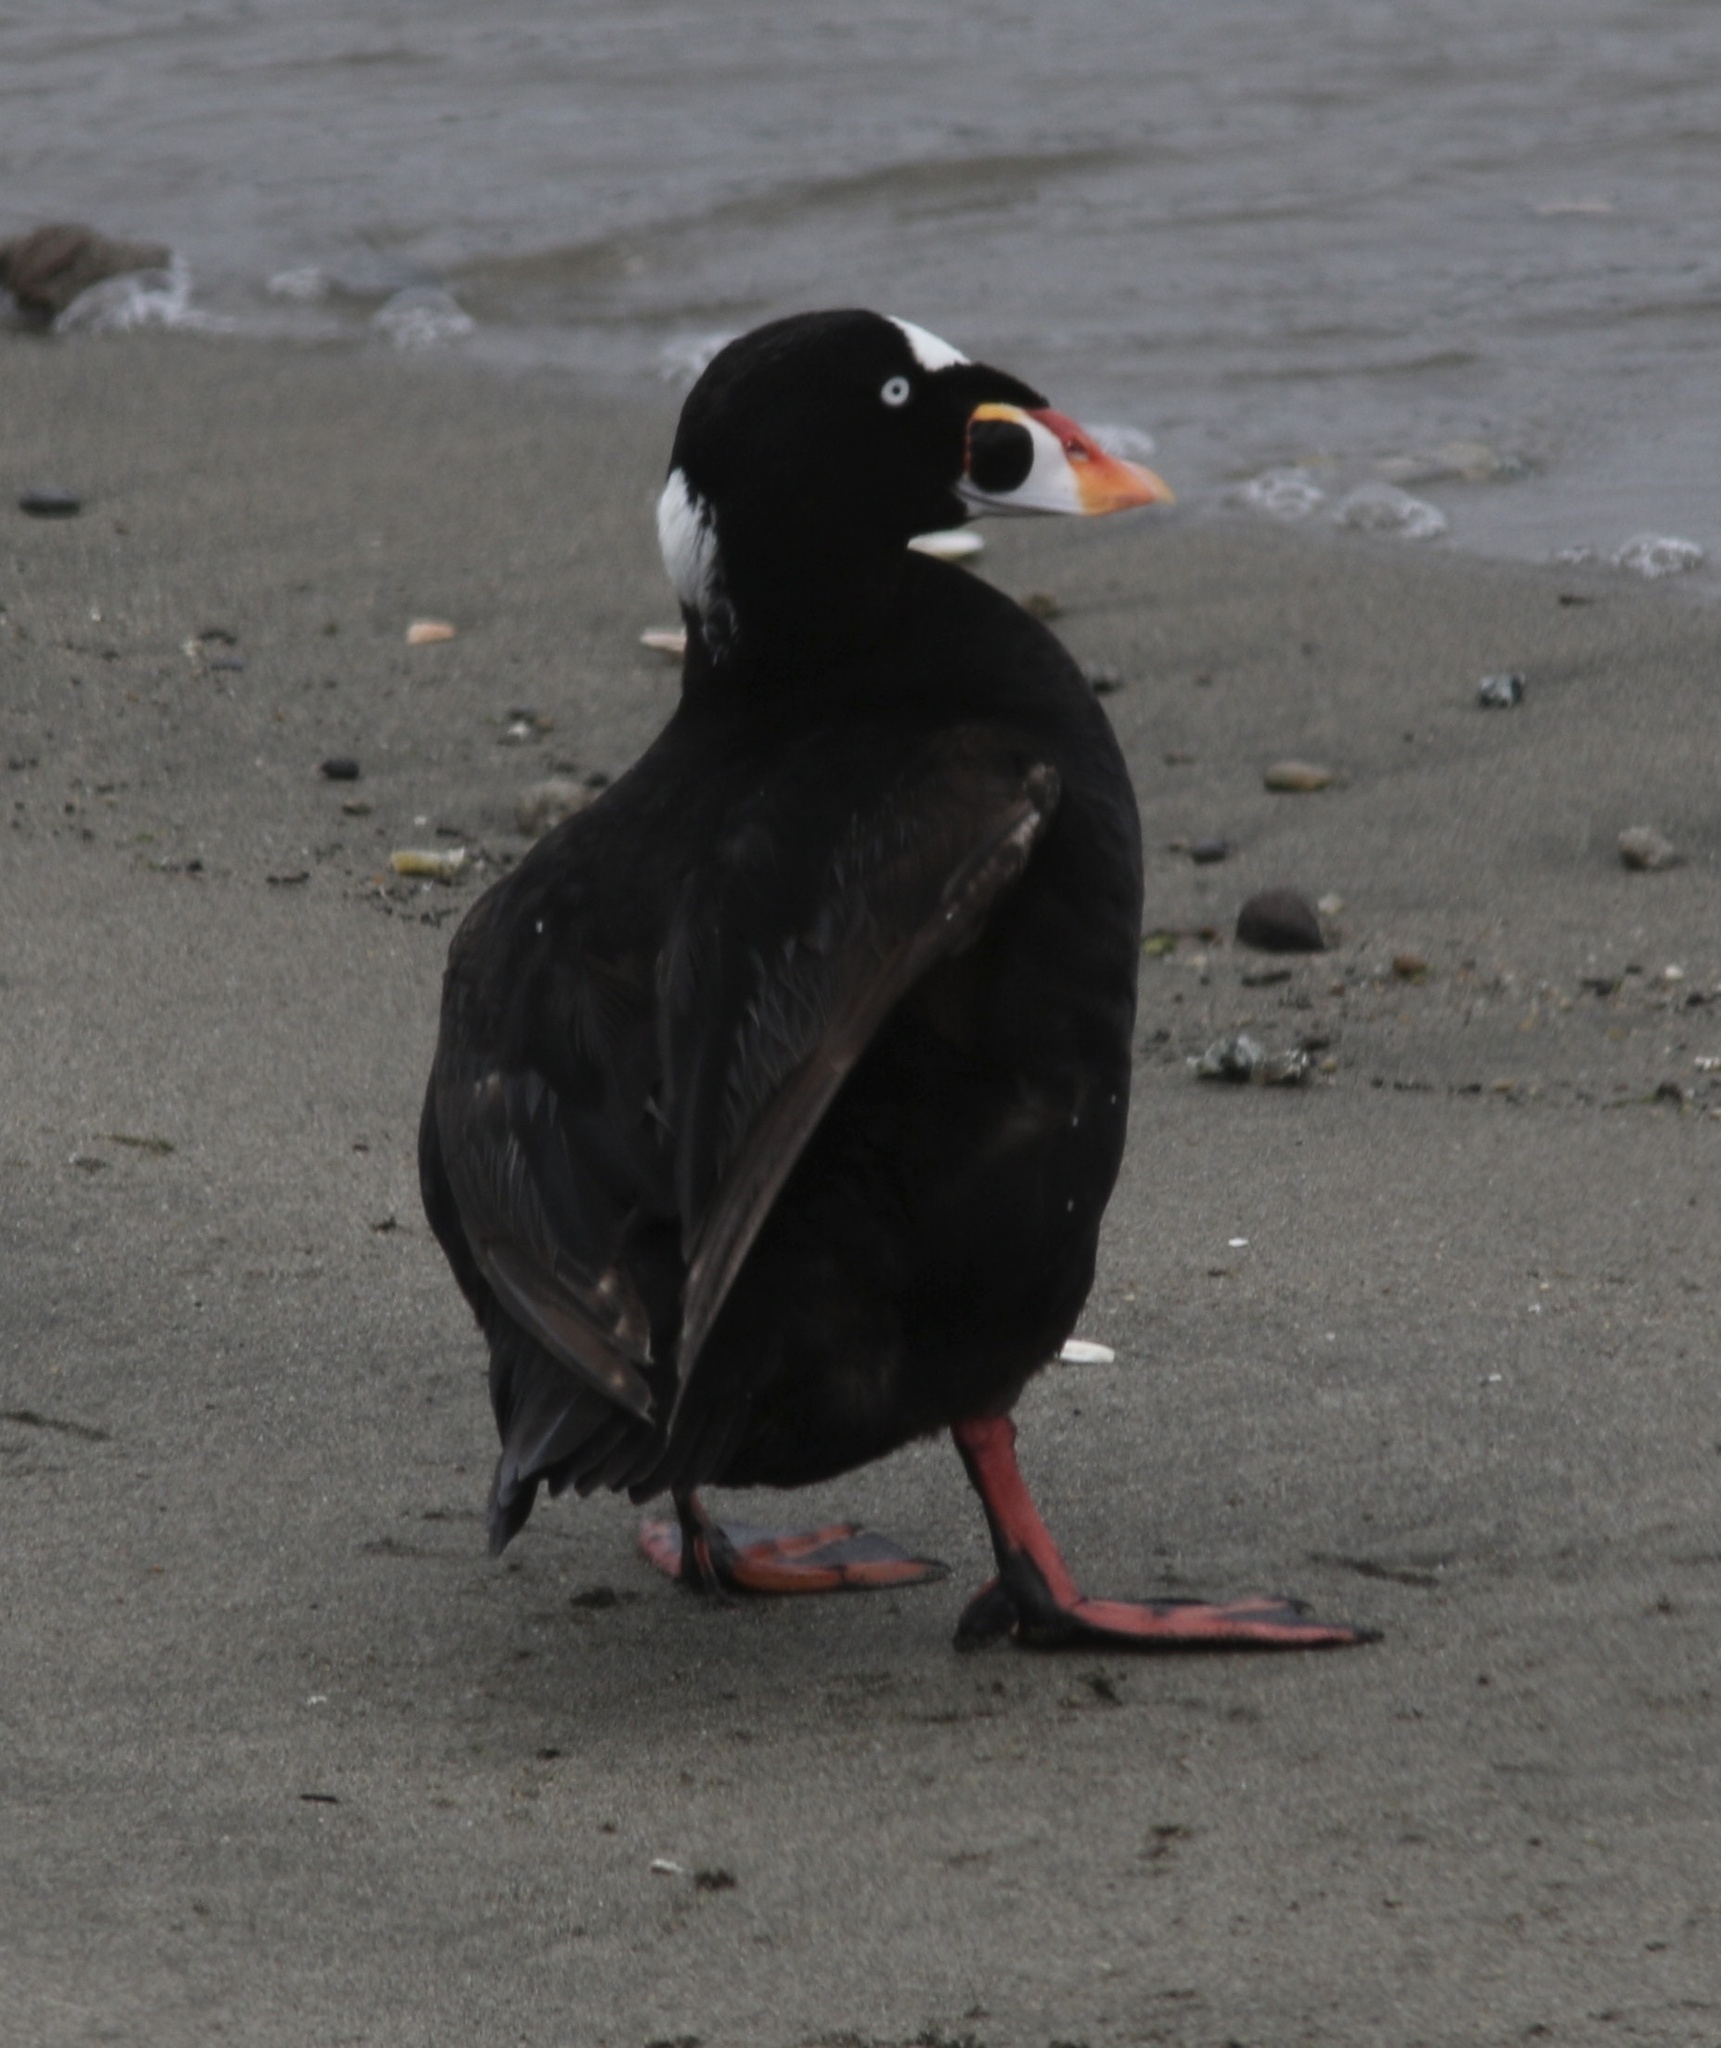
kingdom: Animalia
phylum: Chordata
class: Aves
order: Anseriformes
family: Anatidae
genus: Melanitta
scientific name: Melanitta perspicillata
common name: Surf scoter
